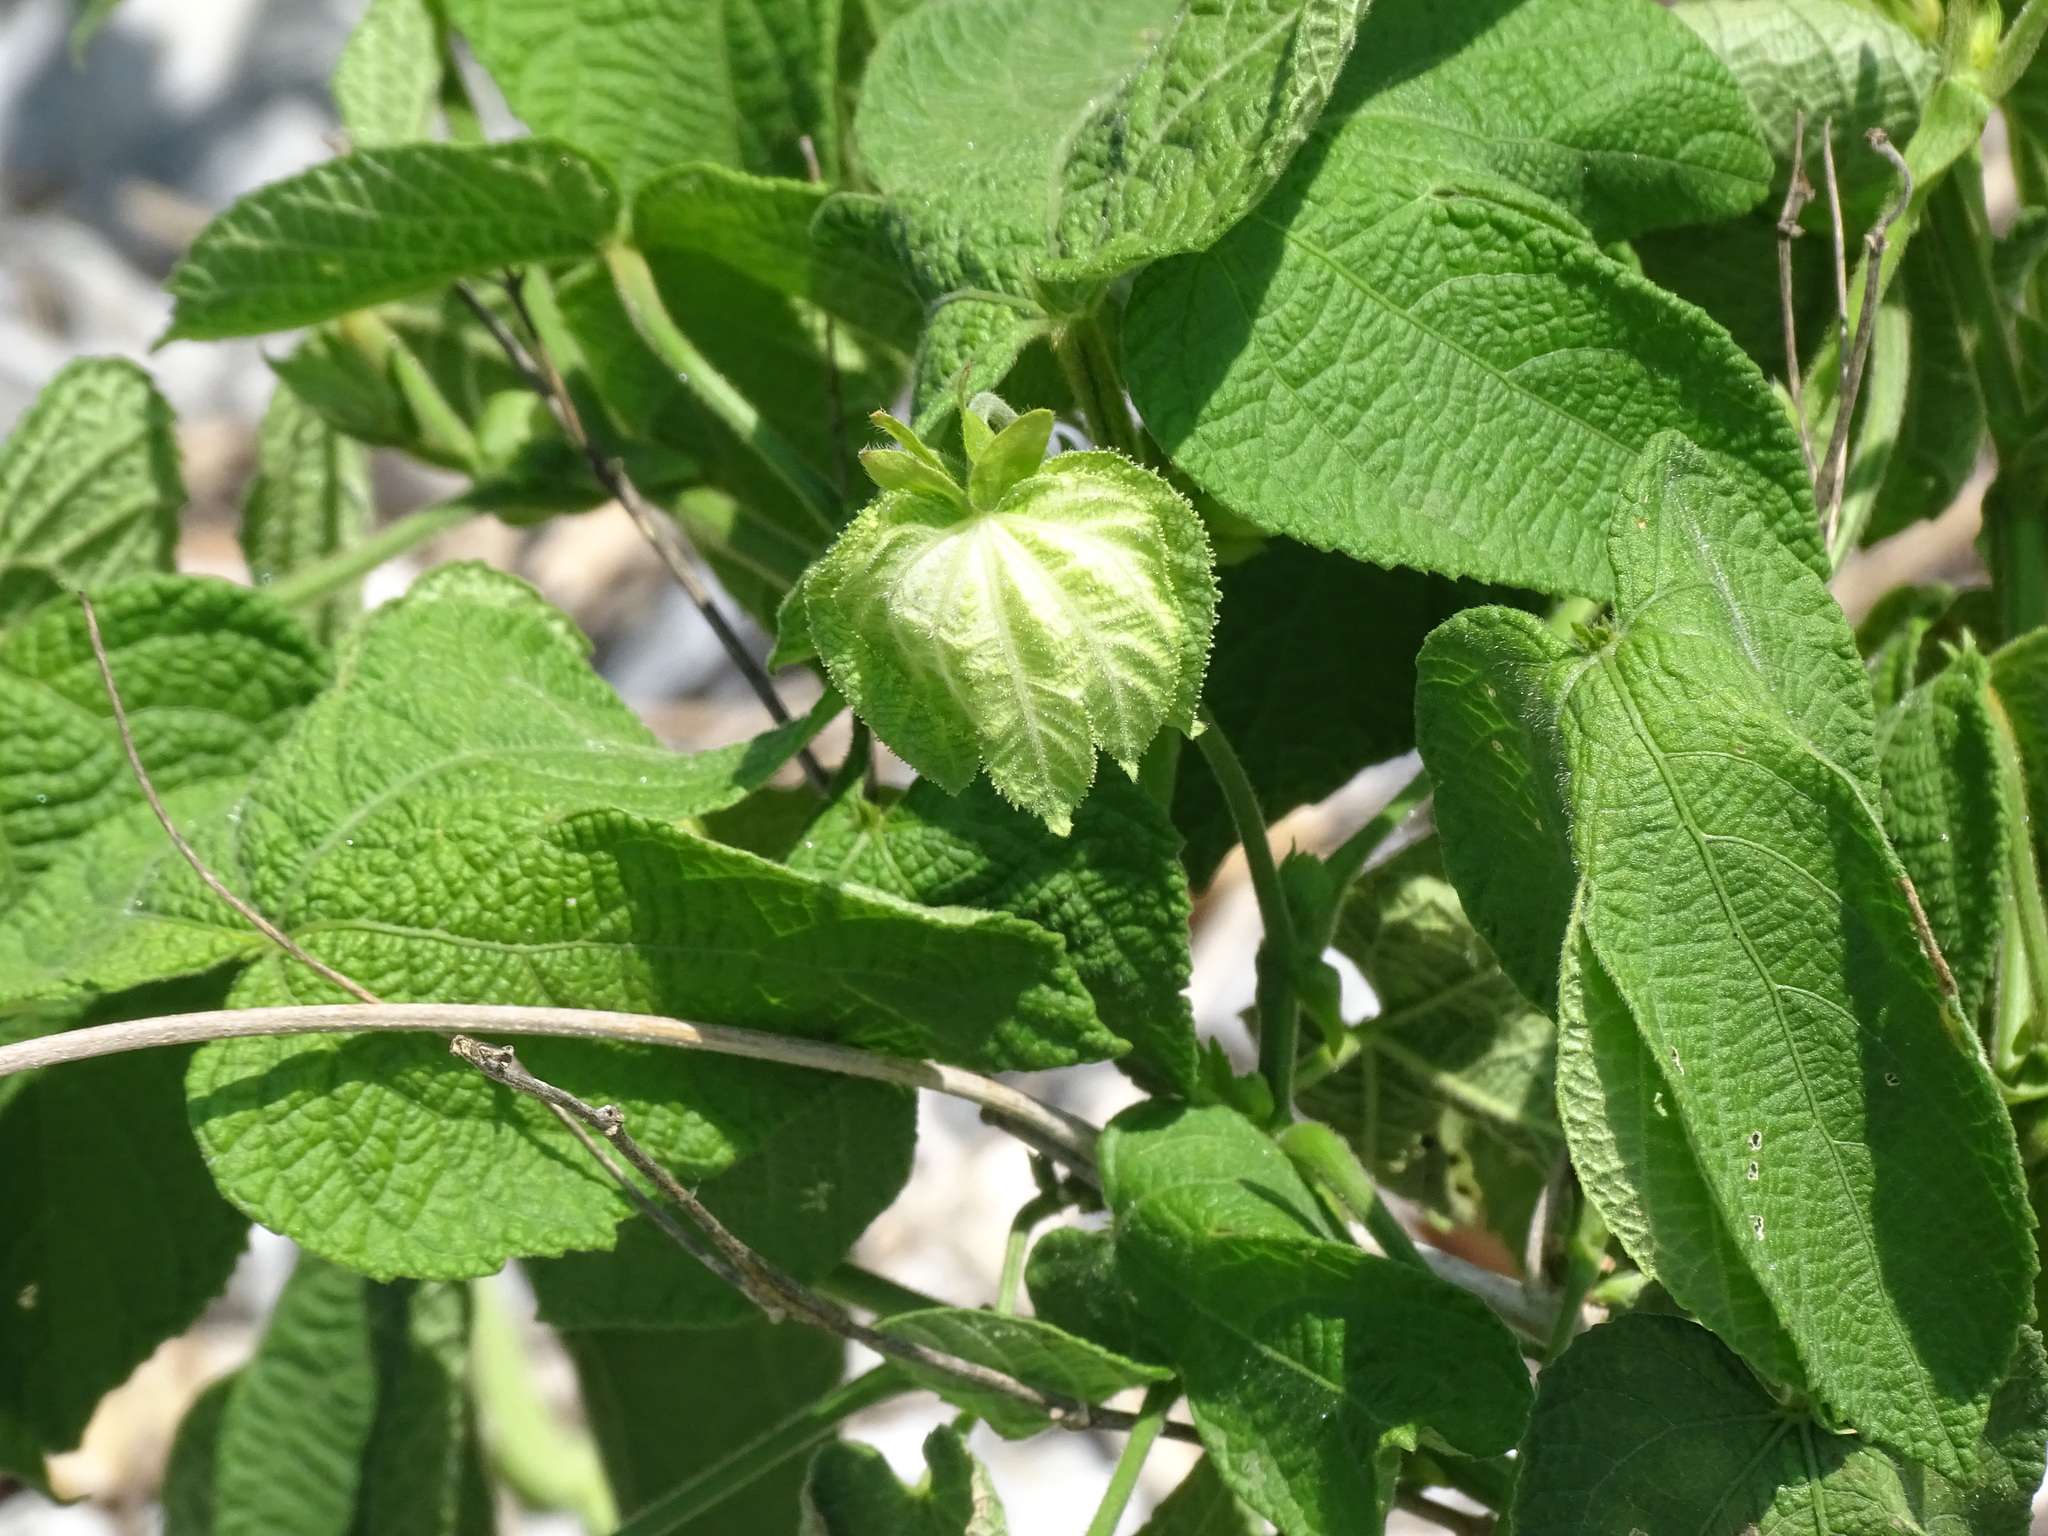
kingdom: Plantae
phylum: Tracheophyta
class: Magnoliopsida
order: Malpighiales
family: Euphorbiaceae
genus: Dalechampia
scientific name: Dalechampia scandens
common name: Spurgecreeper
